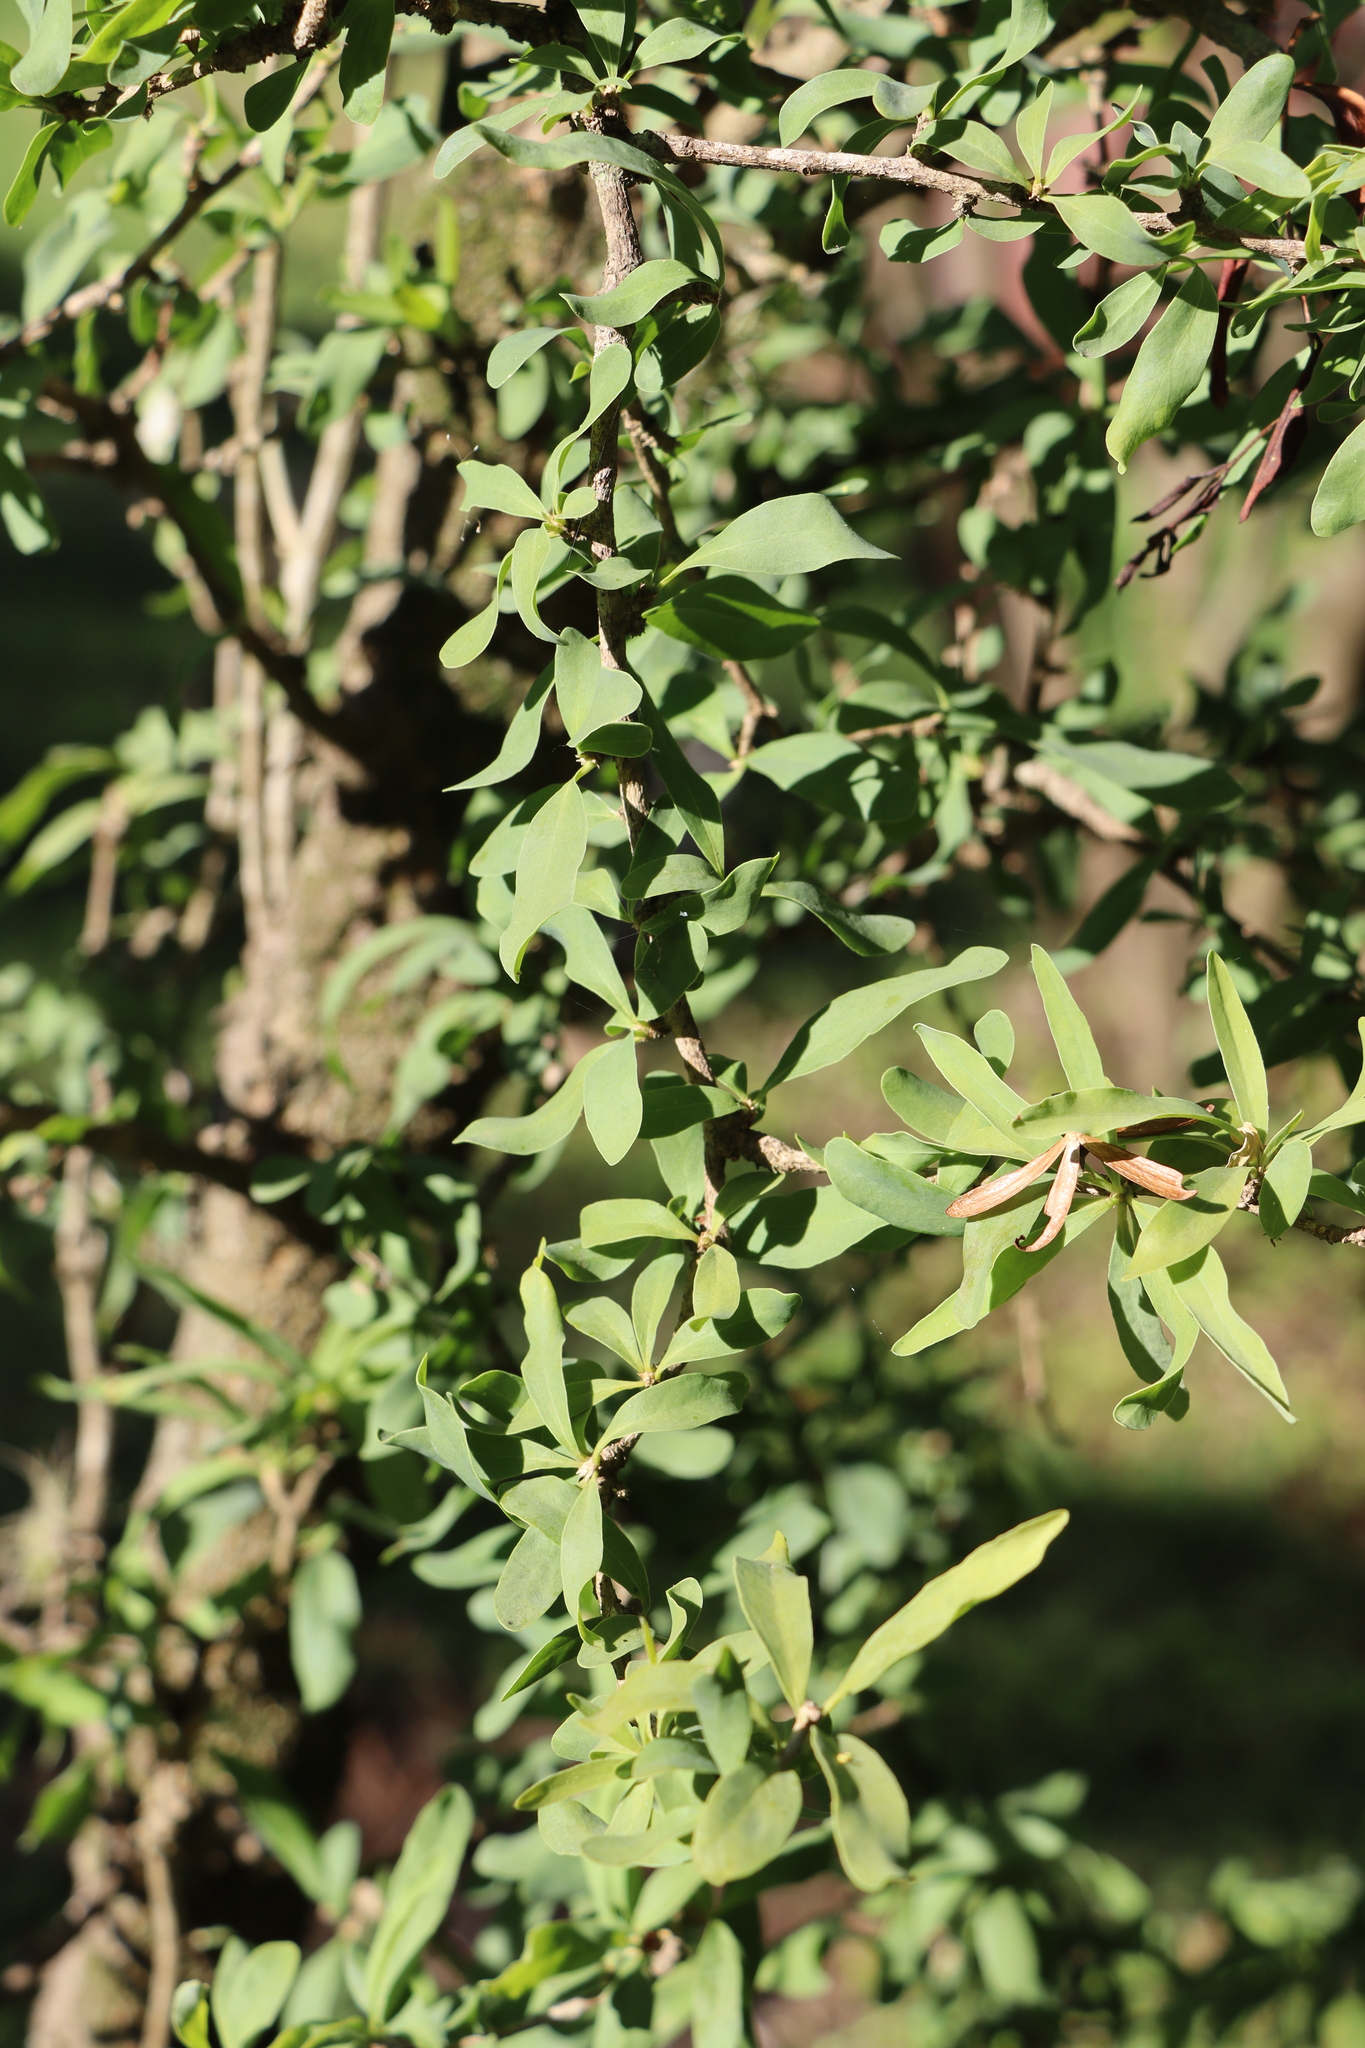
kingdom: Plantae
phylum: Tracheophyta
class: Magnoliopsida
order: Santalales
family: Cervantesiaceae
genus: Acanthosyris
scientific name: Acanthosyris spinescens
